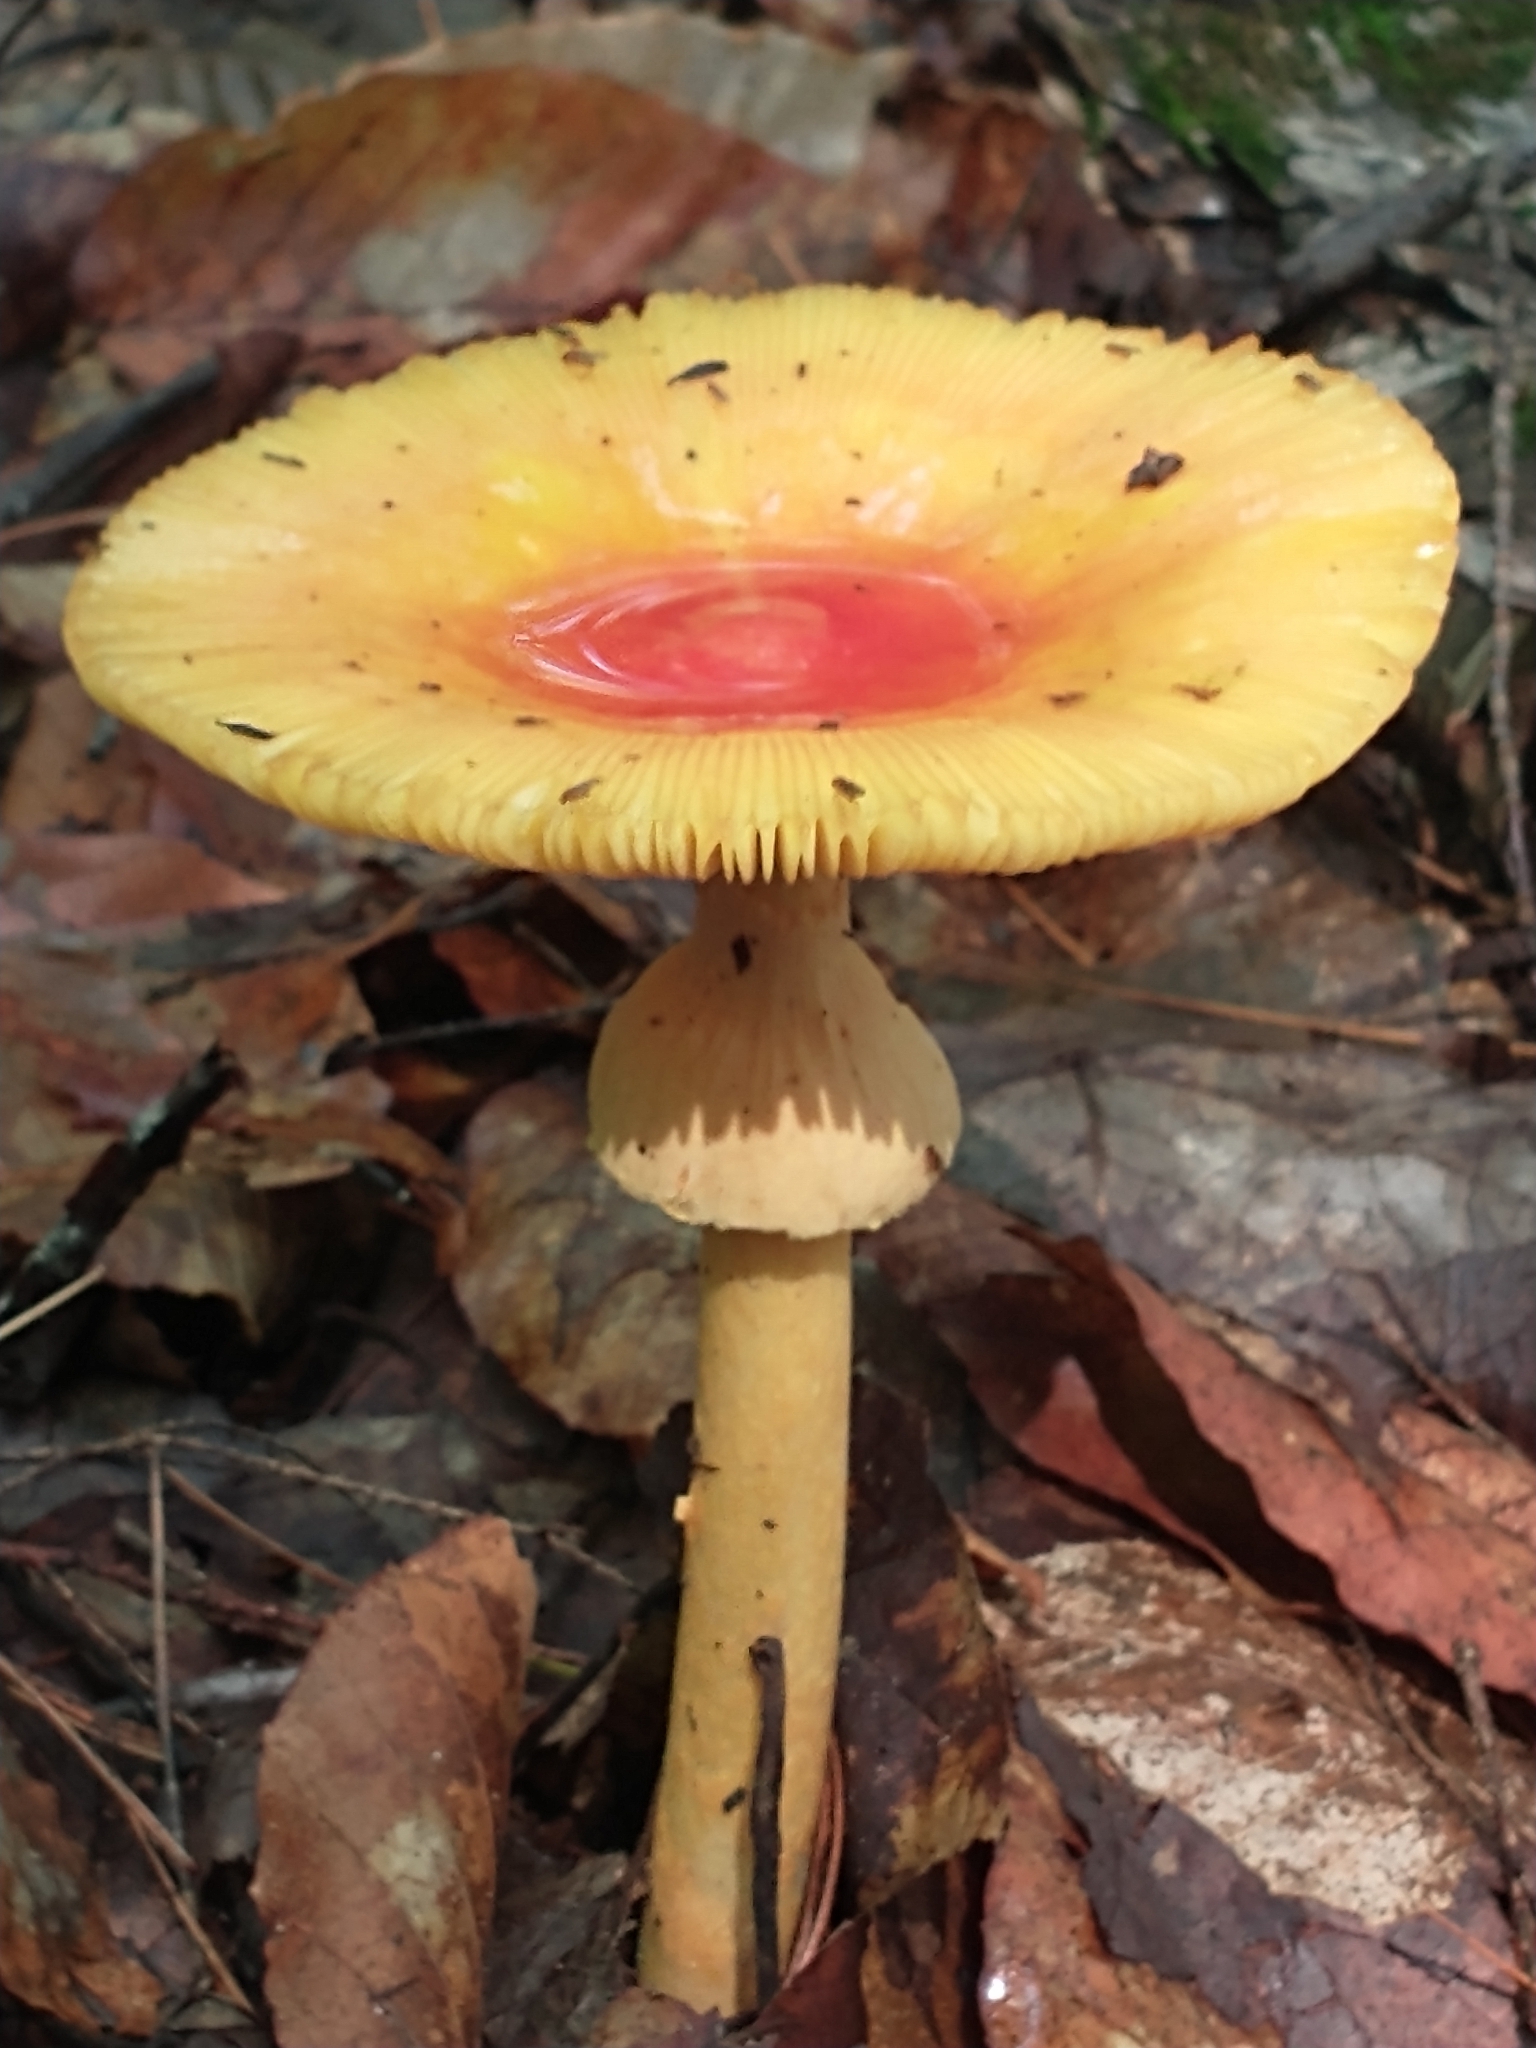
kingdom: Fungi
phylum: Basidiomycota
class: Agaricomycetes
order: Agaricales
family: Amanitaceae
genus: Amanita
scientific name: Amanita jacksonii
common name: Jackson's slender caesar
